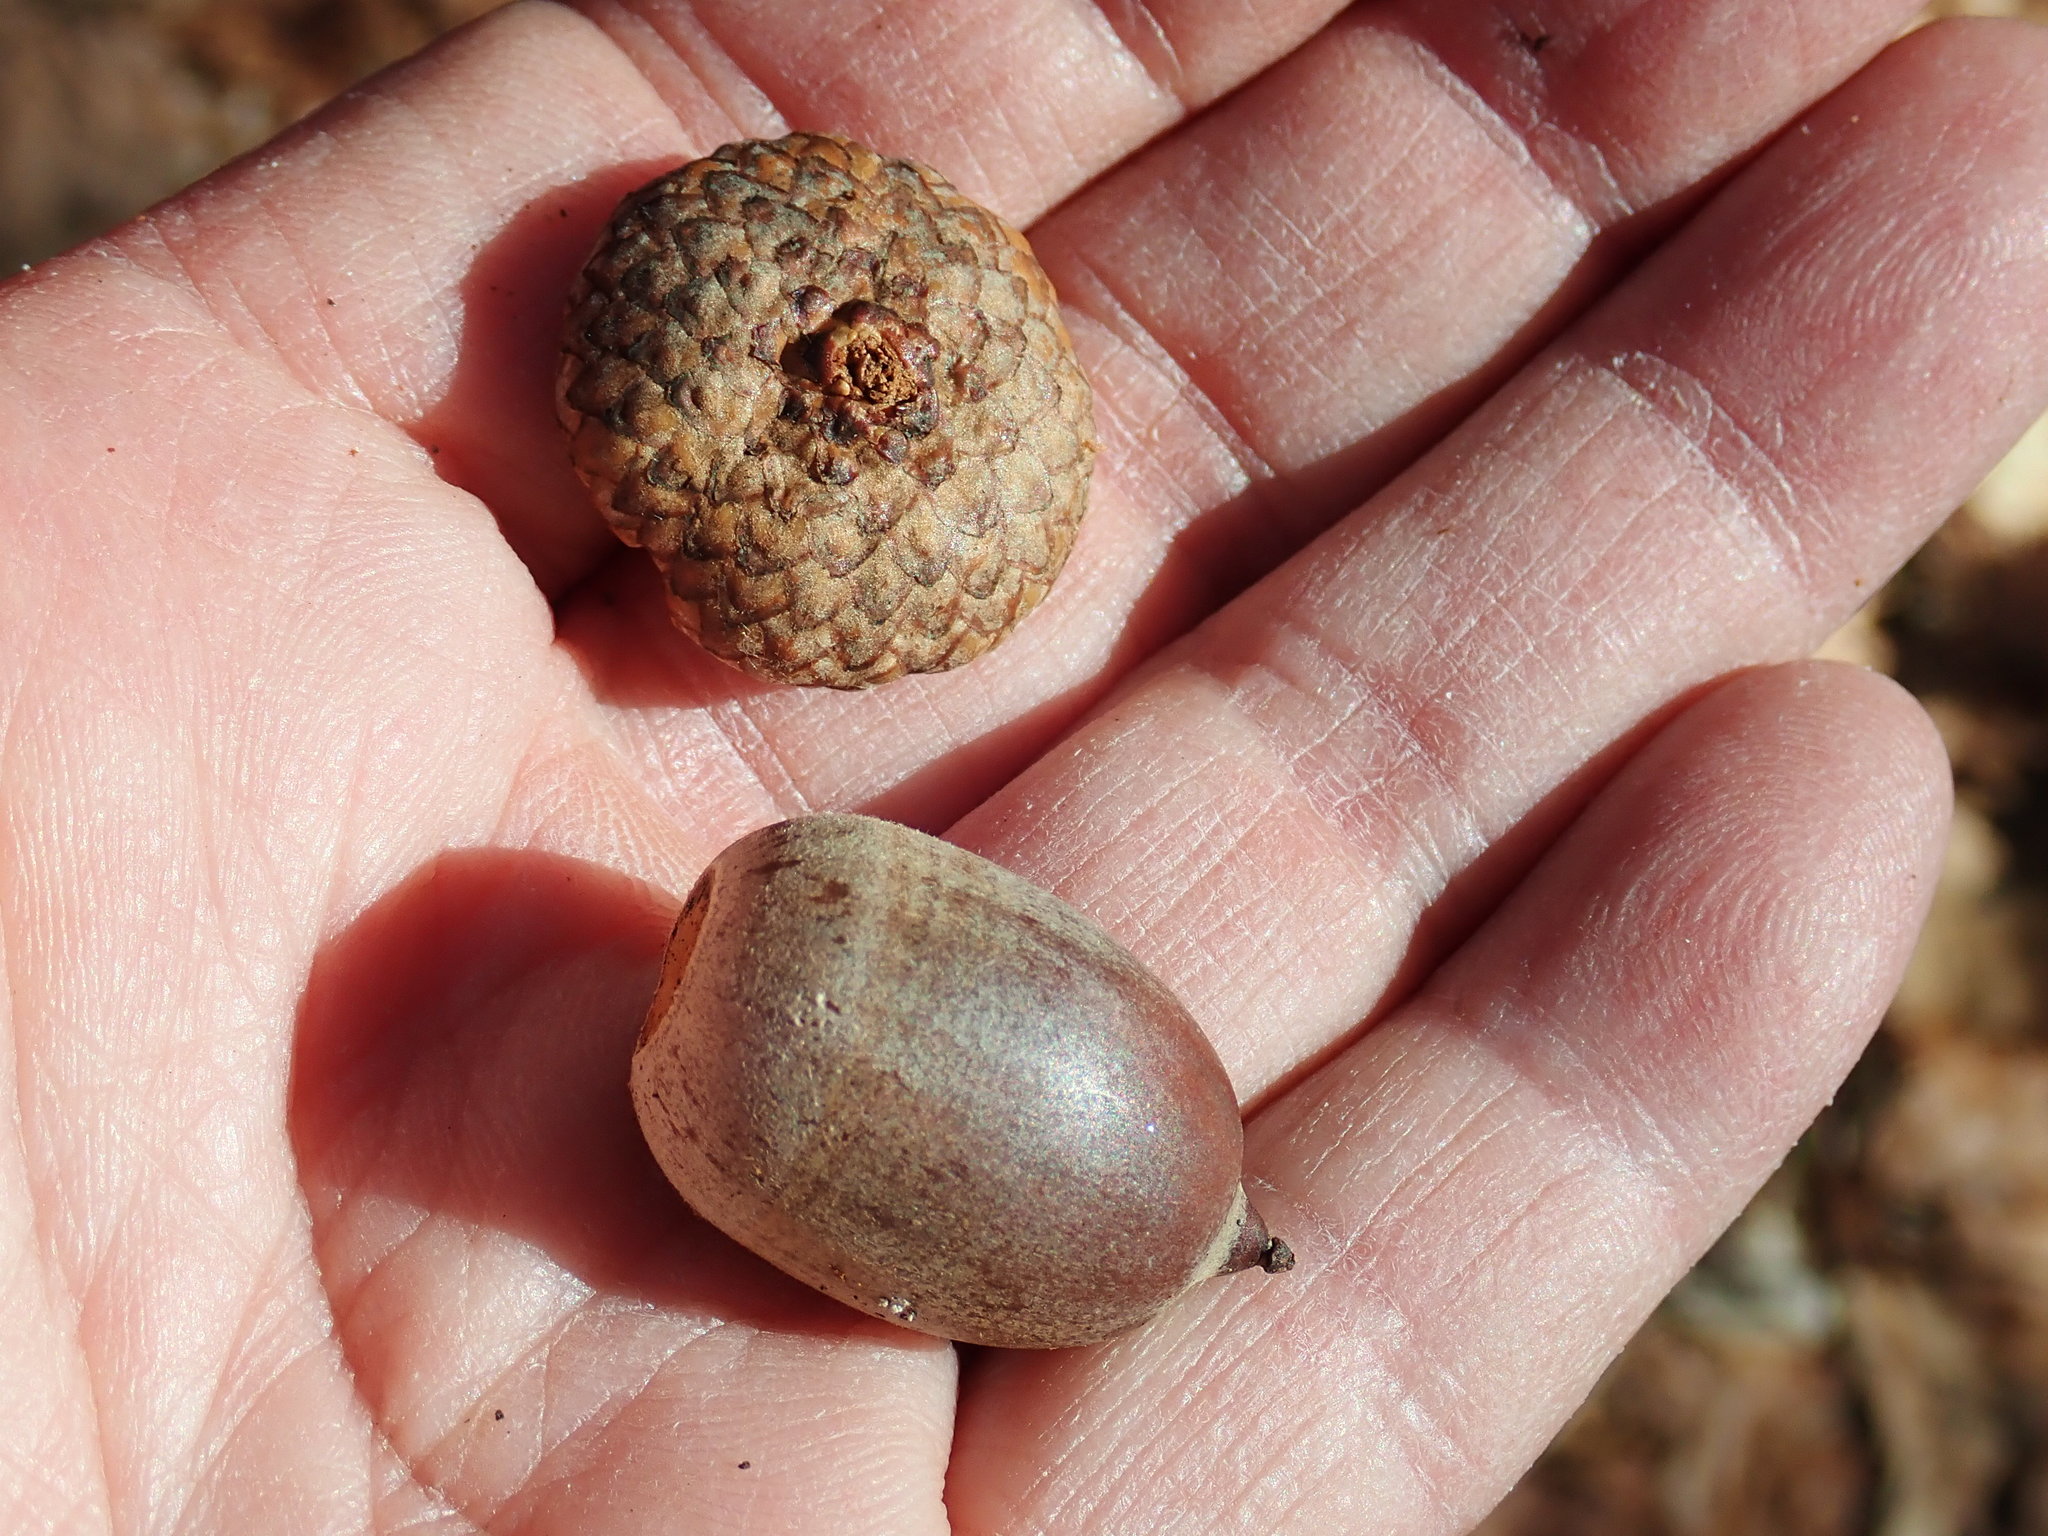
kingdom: Plantae
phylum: Tracheophyta
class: Magnoliopsida
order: Fagales
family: Fagaceae
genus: Quercus
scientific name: Quercus rubra
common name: Red oak
